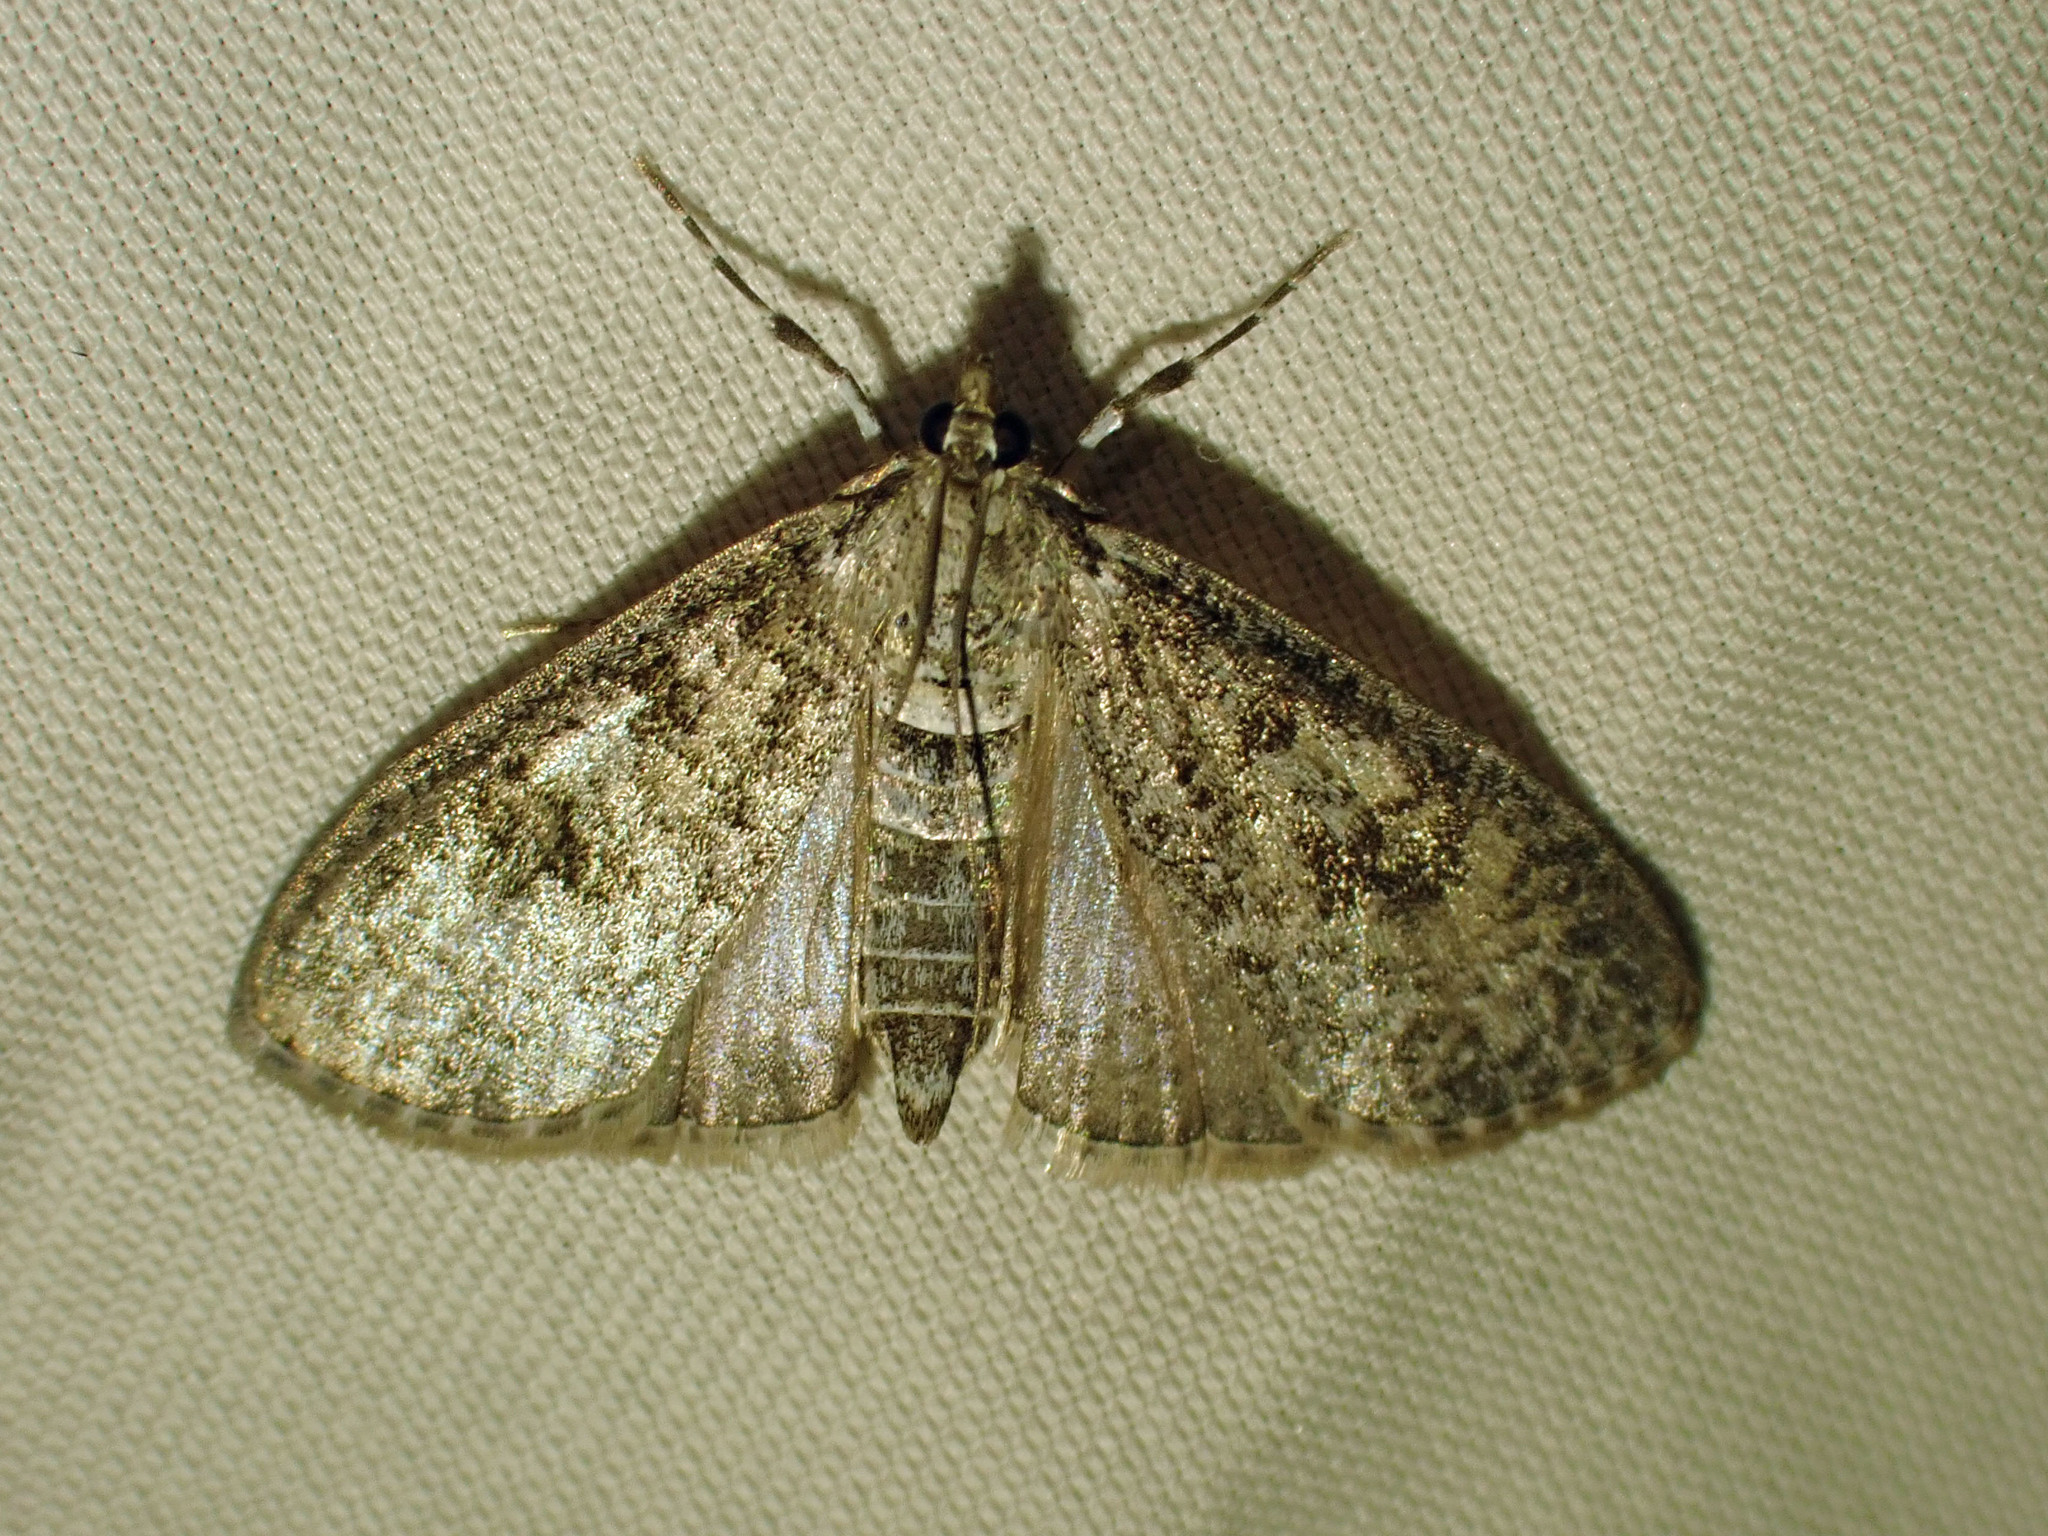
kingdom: Animalia
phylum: Arthropoda
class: Insecta
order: Lepidoptera
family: Crambidae
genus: Palpita
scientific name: Palpita magniferalis
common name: Splendid palpita moth
